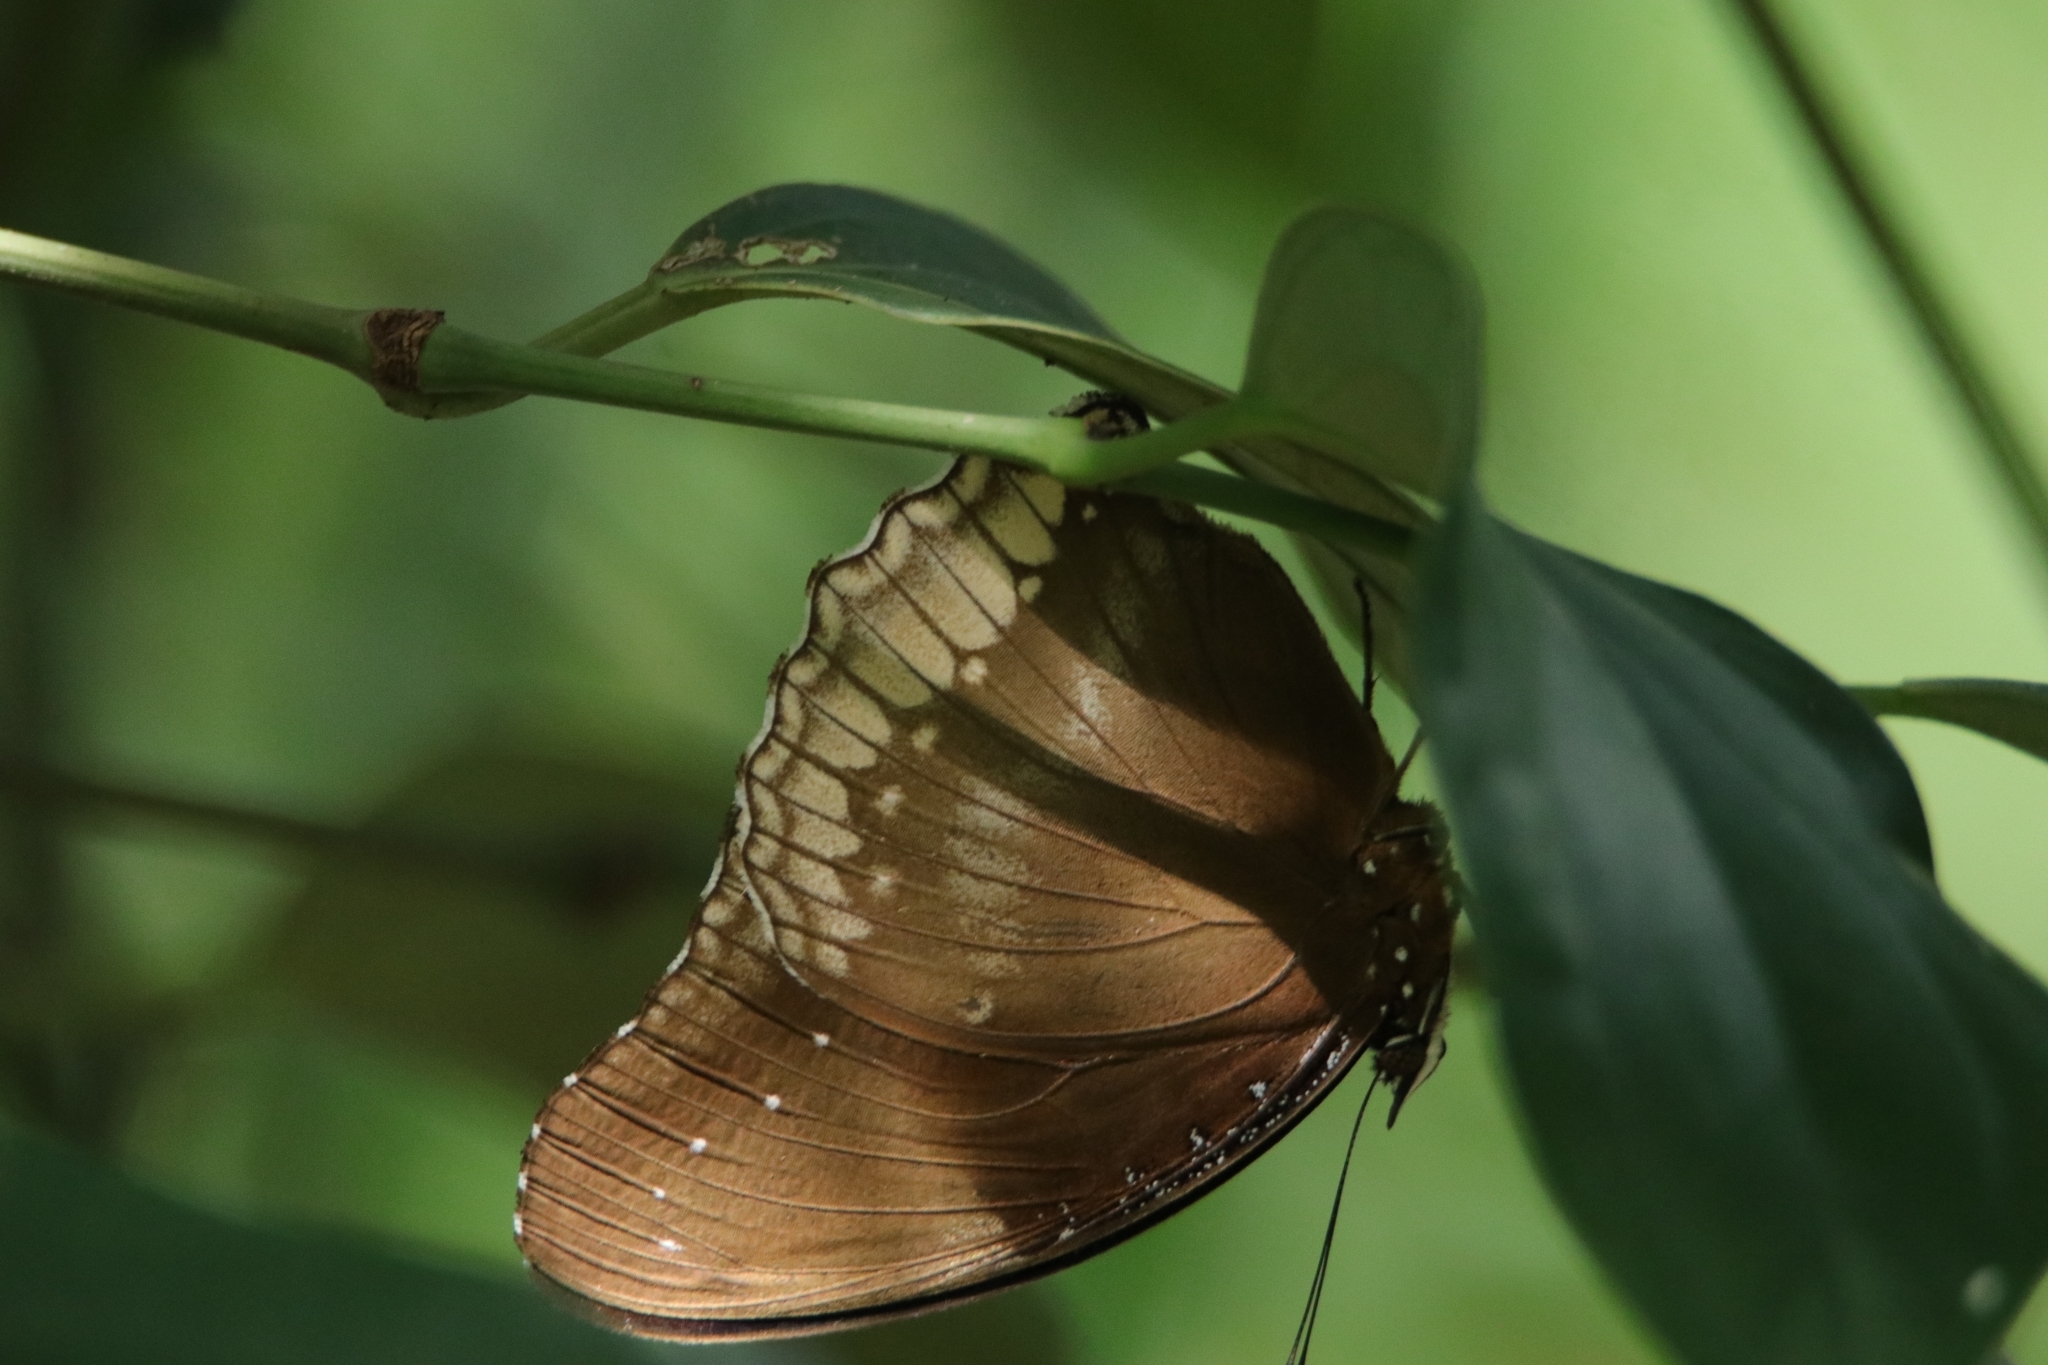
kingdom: Animalia
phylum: Arthropoda
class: Insecta
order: Lepidoptera
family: Nymphalidae
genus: Hypolimnas
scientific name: Hypolimnas bolina
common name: Great eggfly
